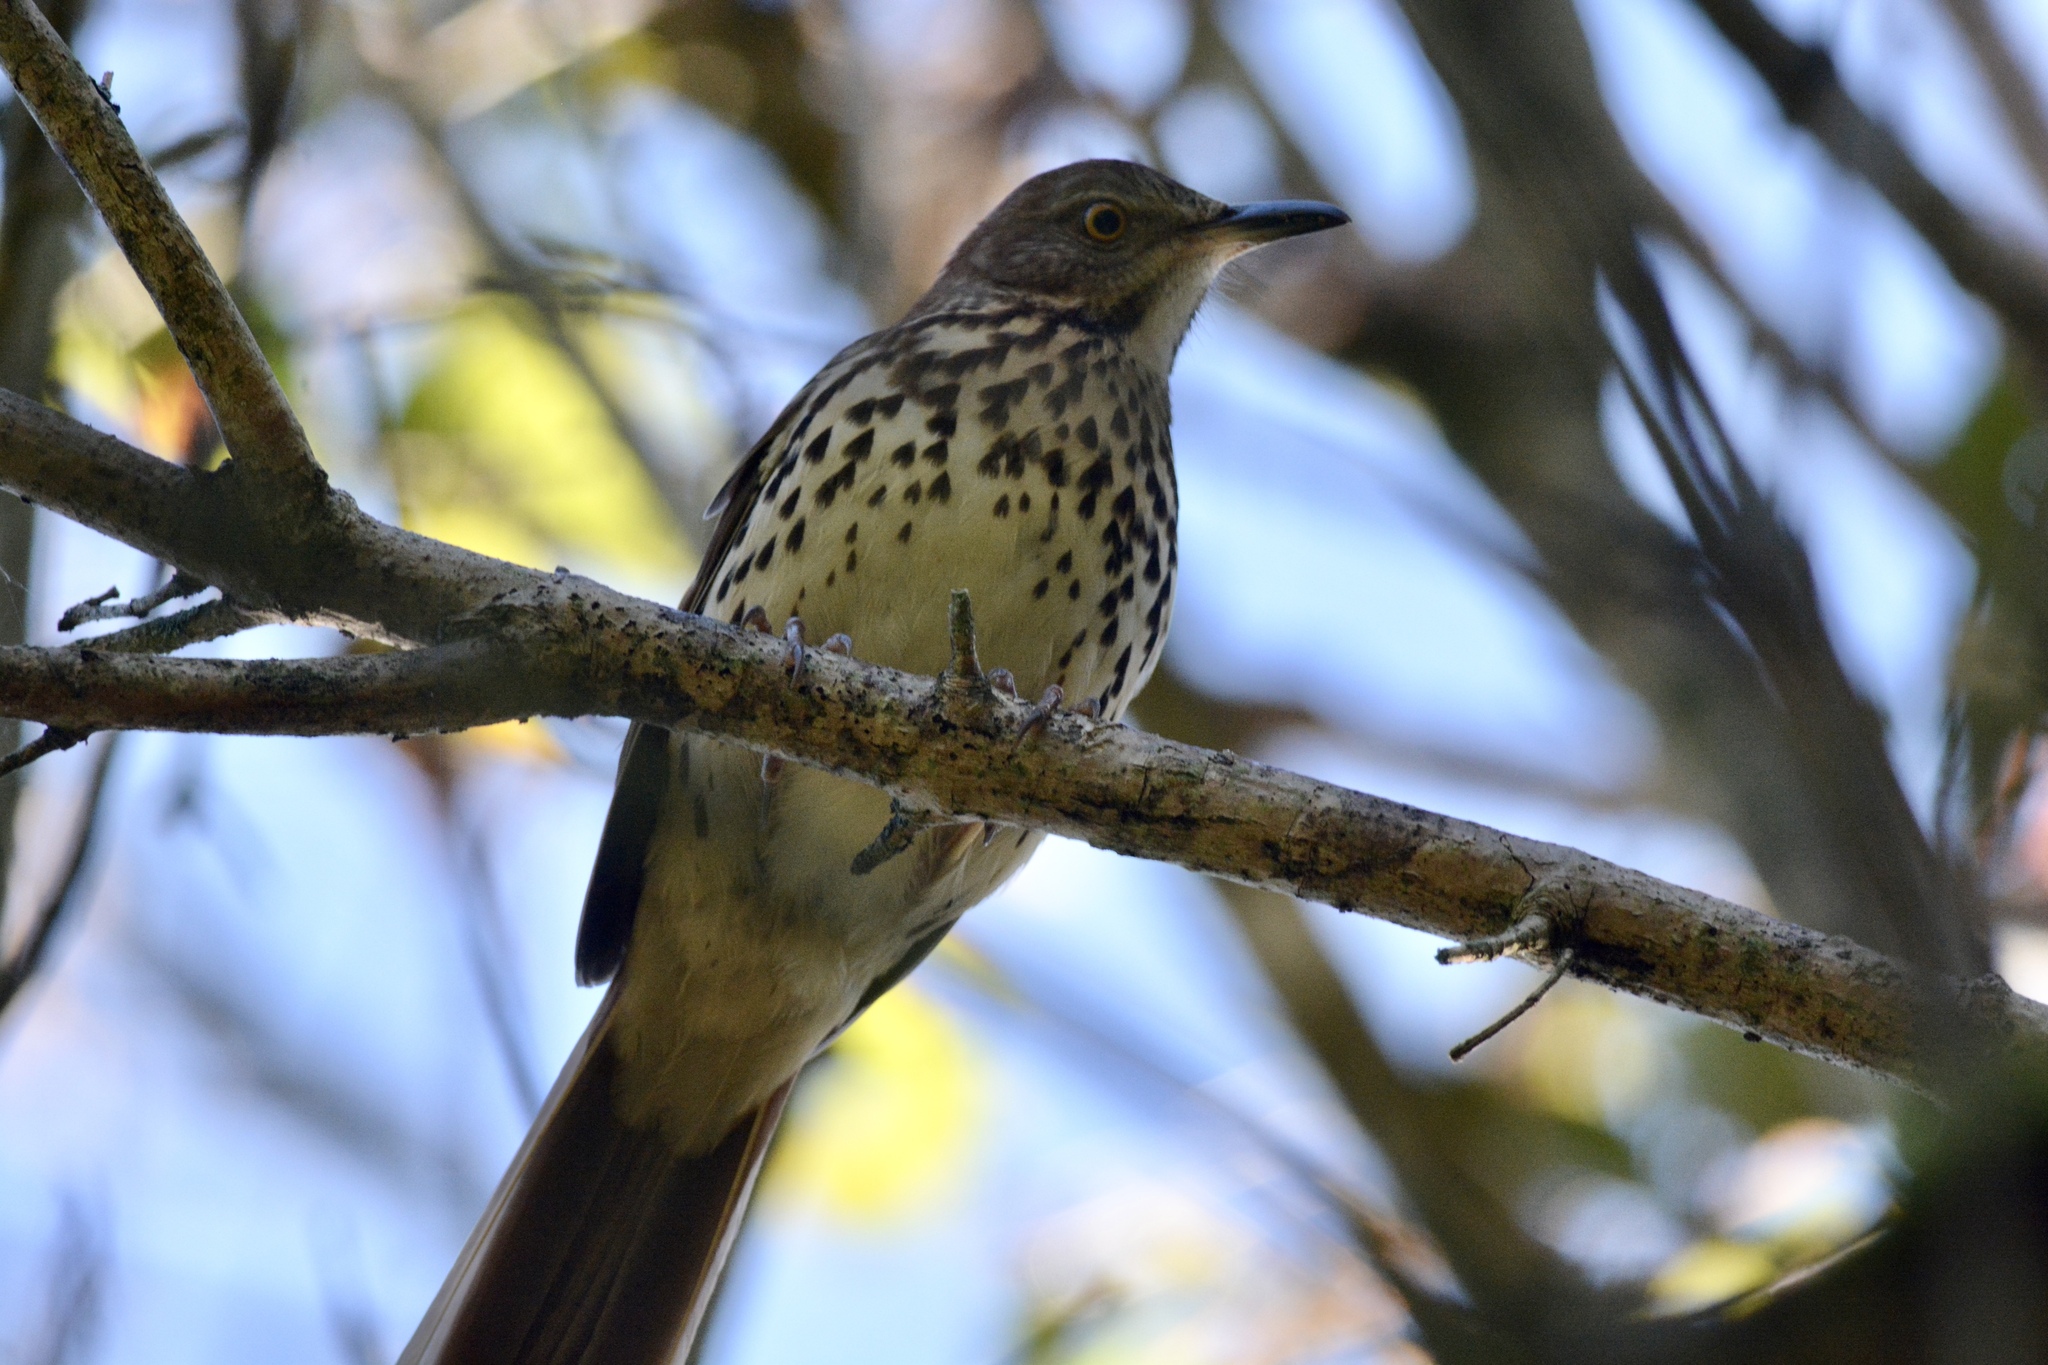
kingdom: Animalia
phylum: Chordata
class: Aves
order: Passeriformes
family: Mimidae
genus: Toxostoma
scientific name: Toxostoma rufum
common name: Brown thrasher
